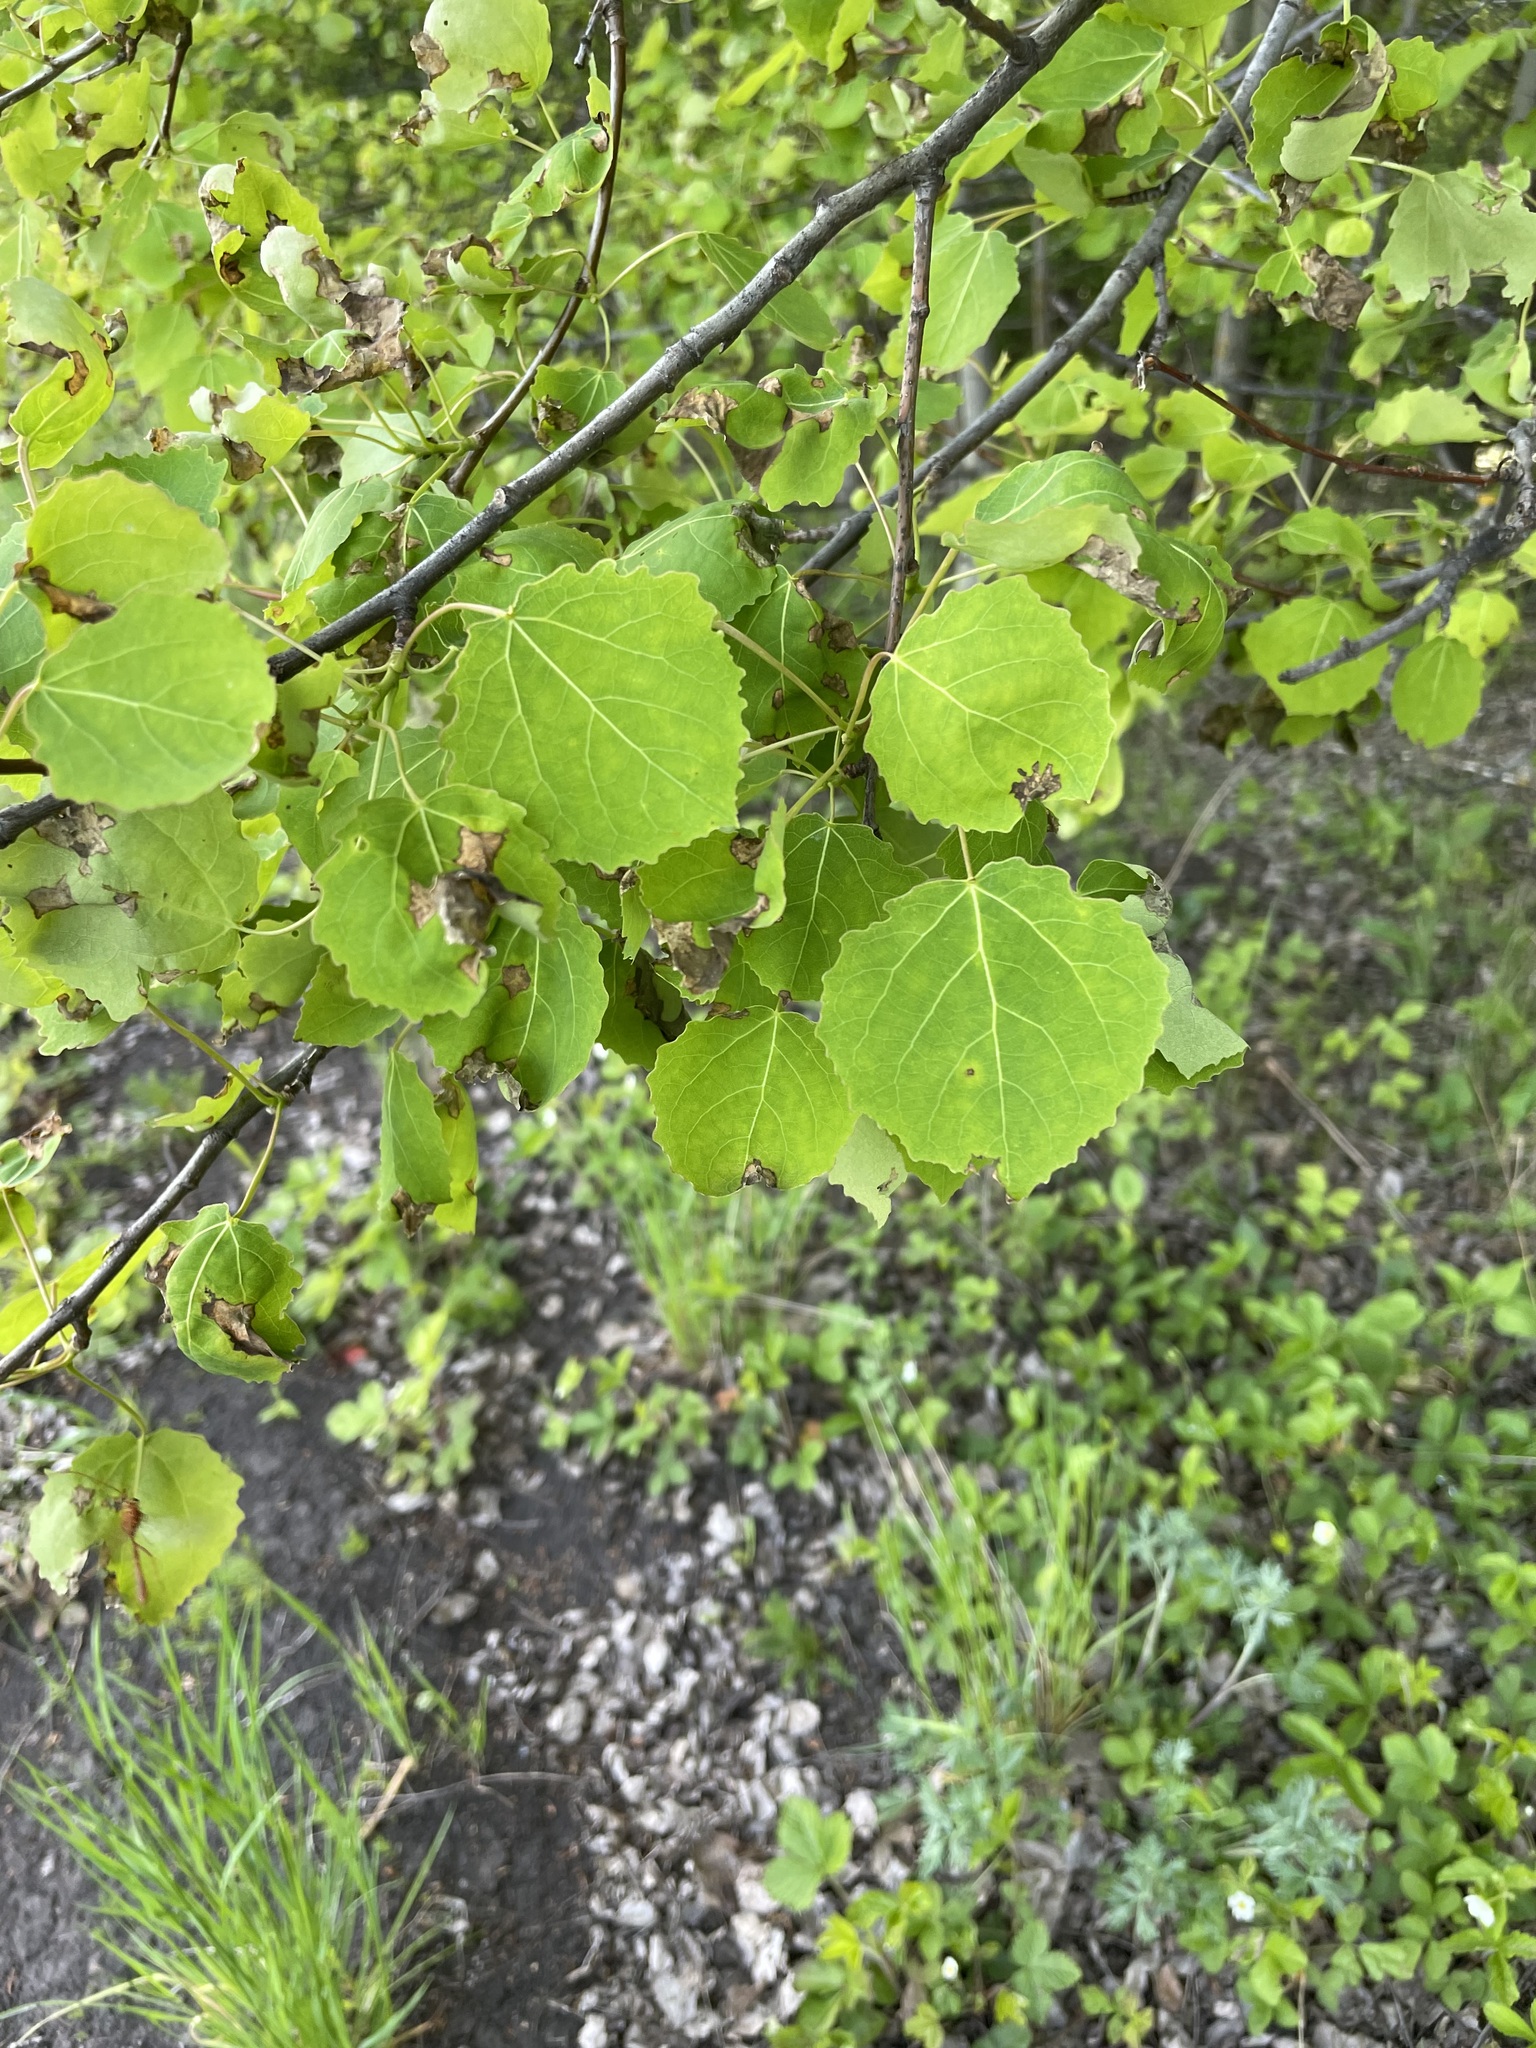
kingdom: Plantae
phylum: Tracheophyta
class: Magnoliopsida
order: Malpighiales
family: Salicaceae
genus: Populus
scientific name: Populus tremula
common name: European aspen
